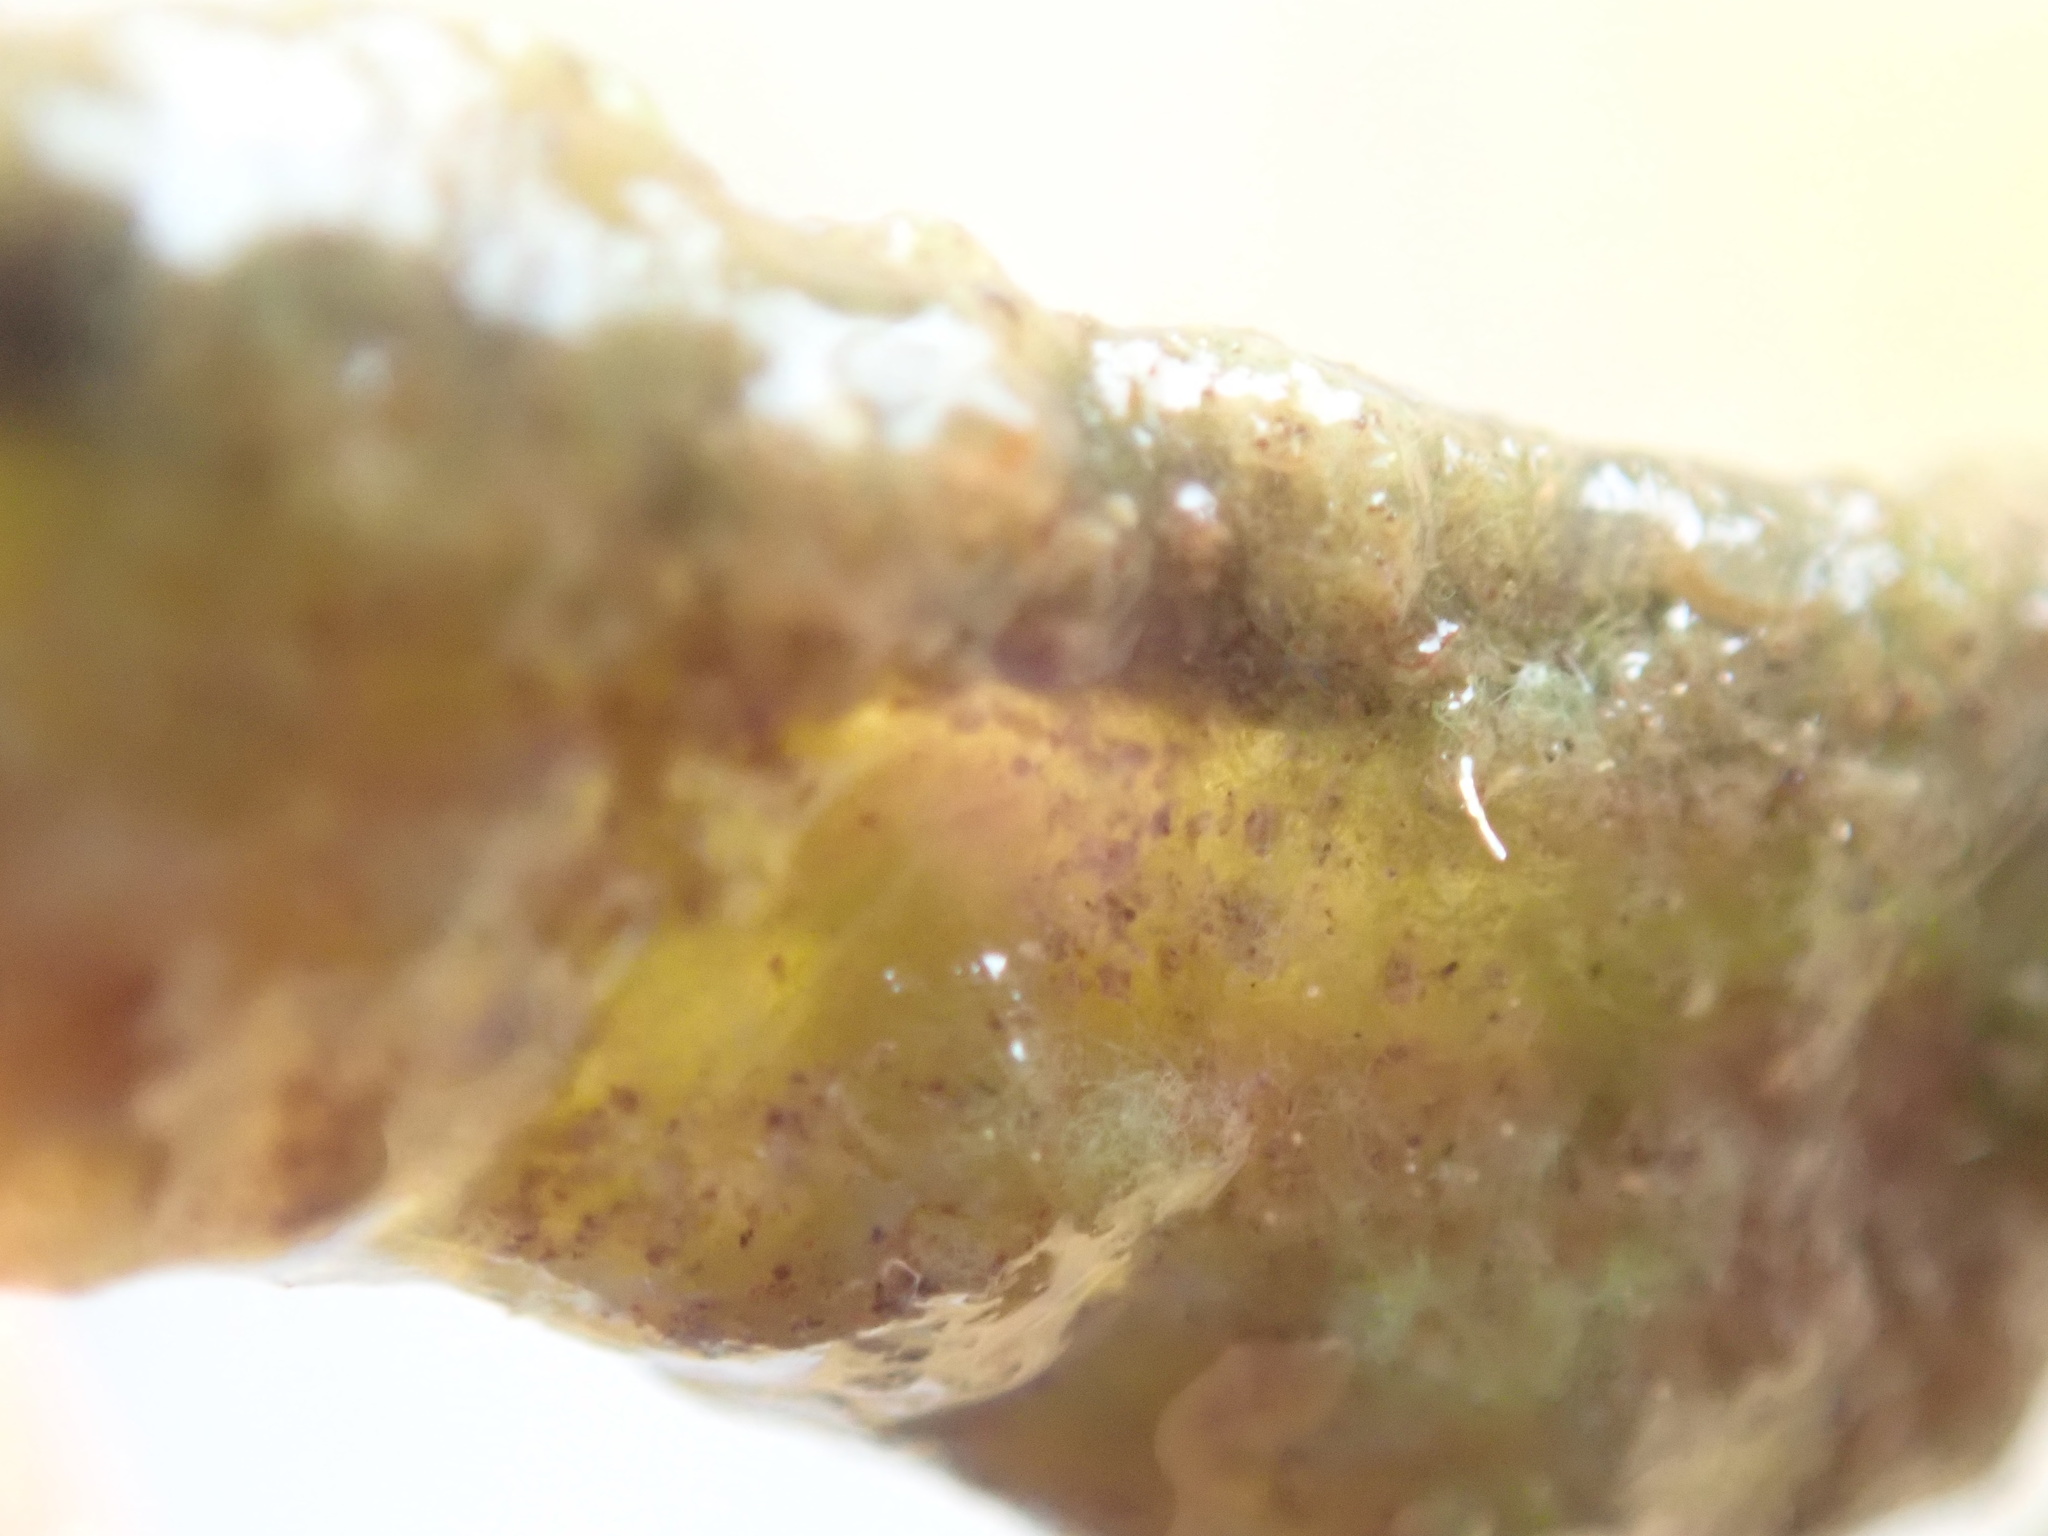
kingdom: Bacteria
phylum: Cyanobacteria
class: Cyanobacteriia
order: Cyanobacteriales
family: Hapalosiphonaceae
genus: Hapalosiphon
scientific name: Hapalosiphon hibernicus
